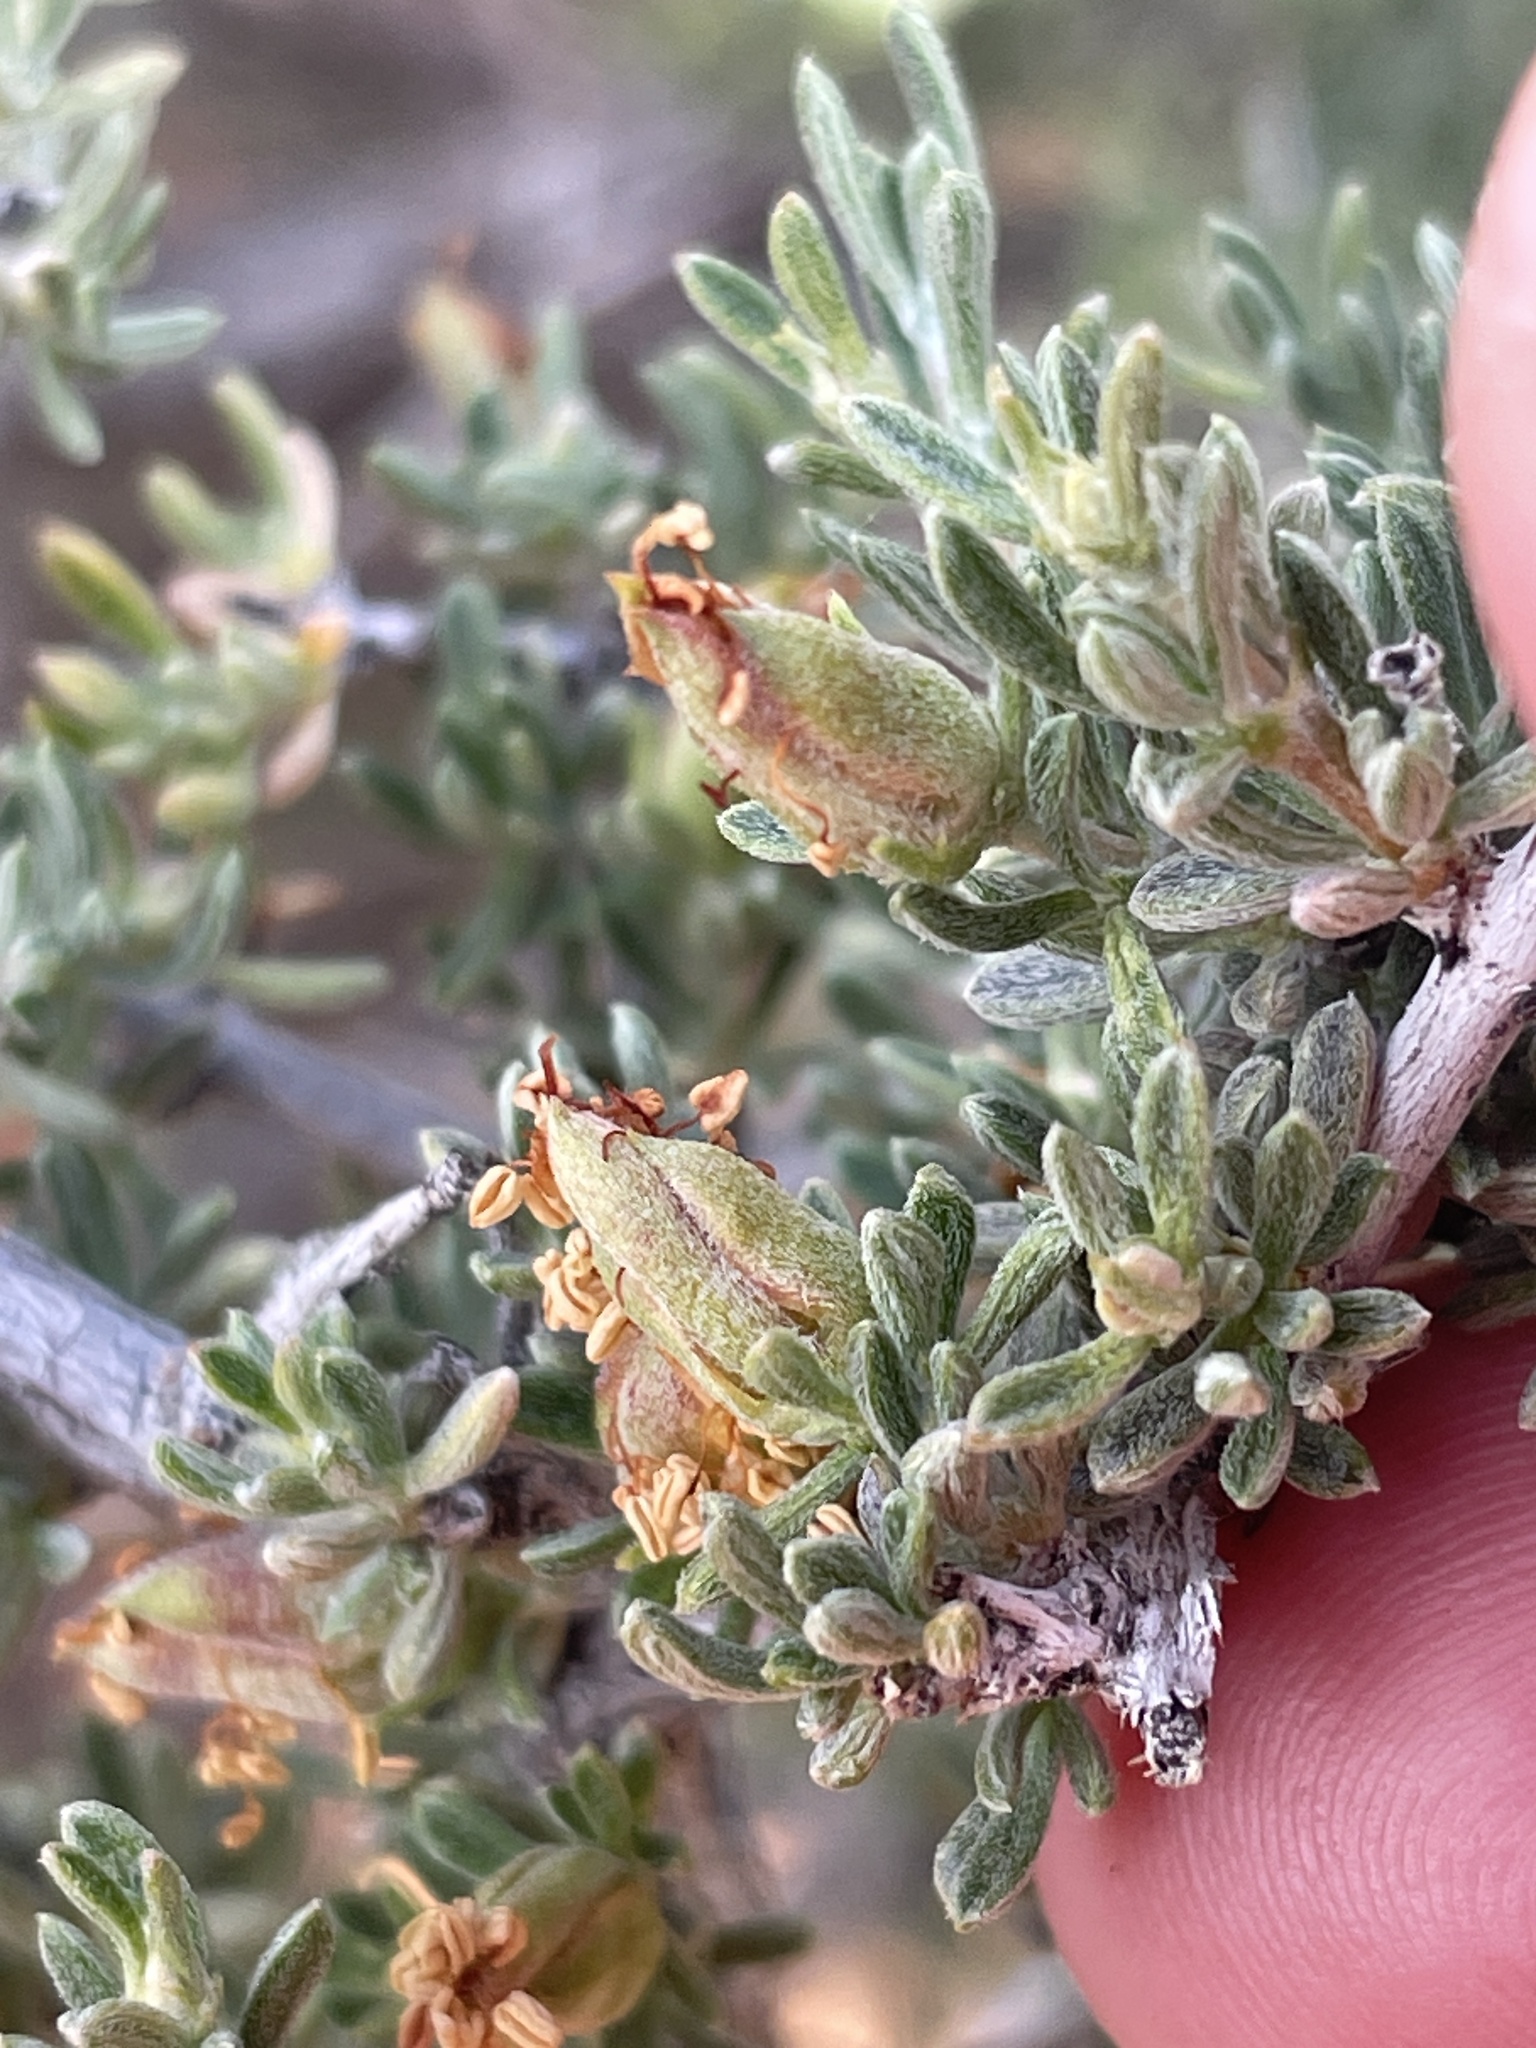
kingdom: Plantae
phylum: Tracheophyta
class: Magnoliopsida
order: Rosales
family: Rosaceae
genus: Coleogyne
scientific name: Coleogyne ramosissima
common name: Blackbrush
